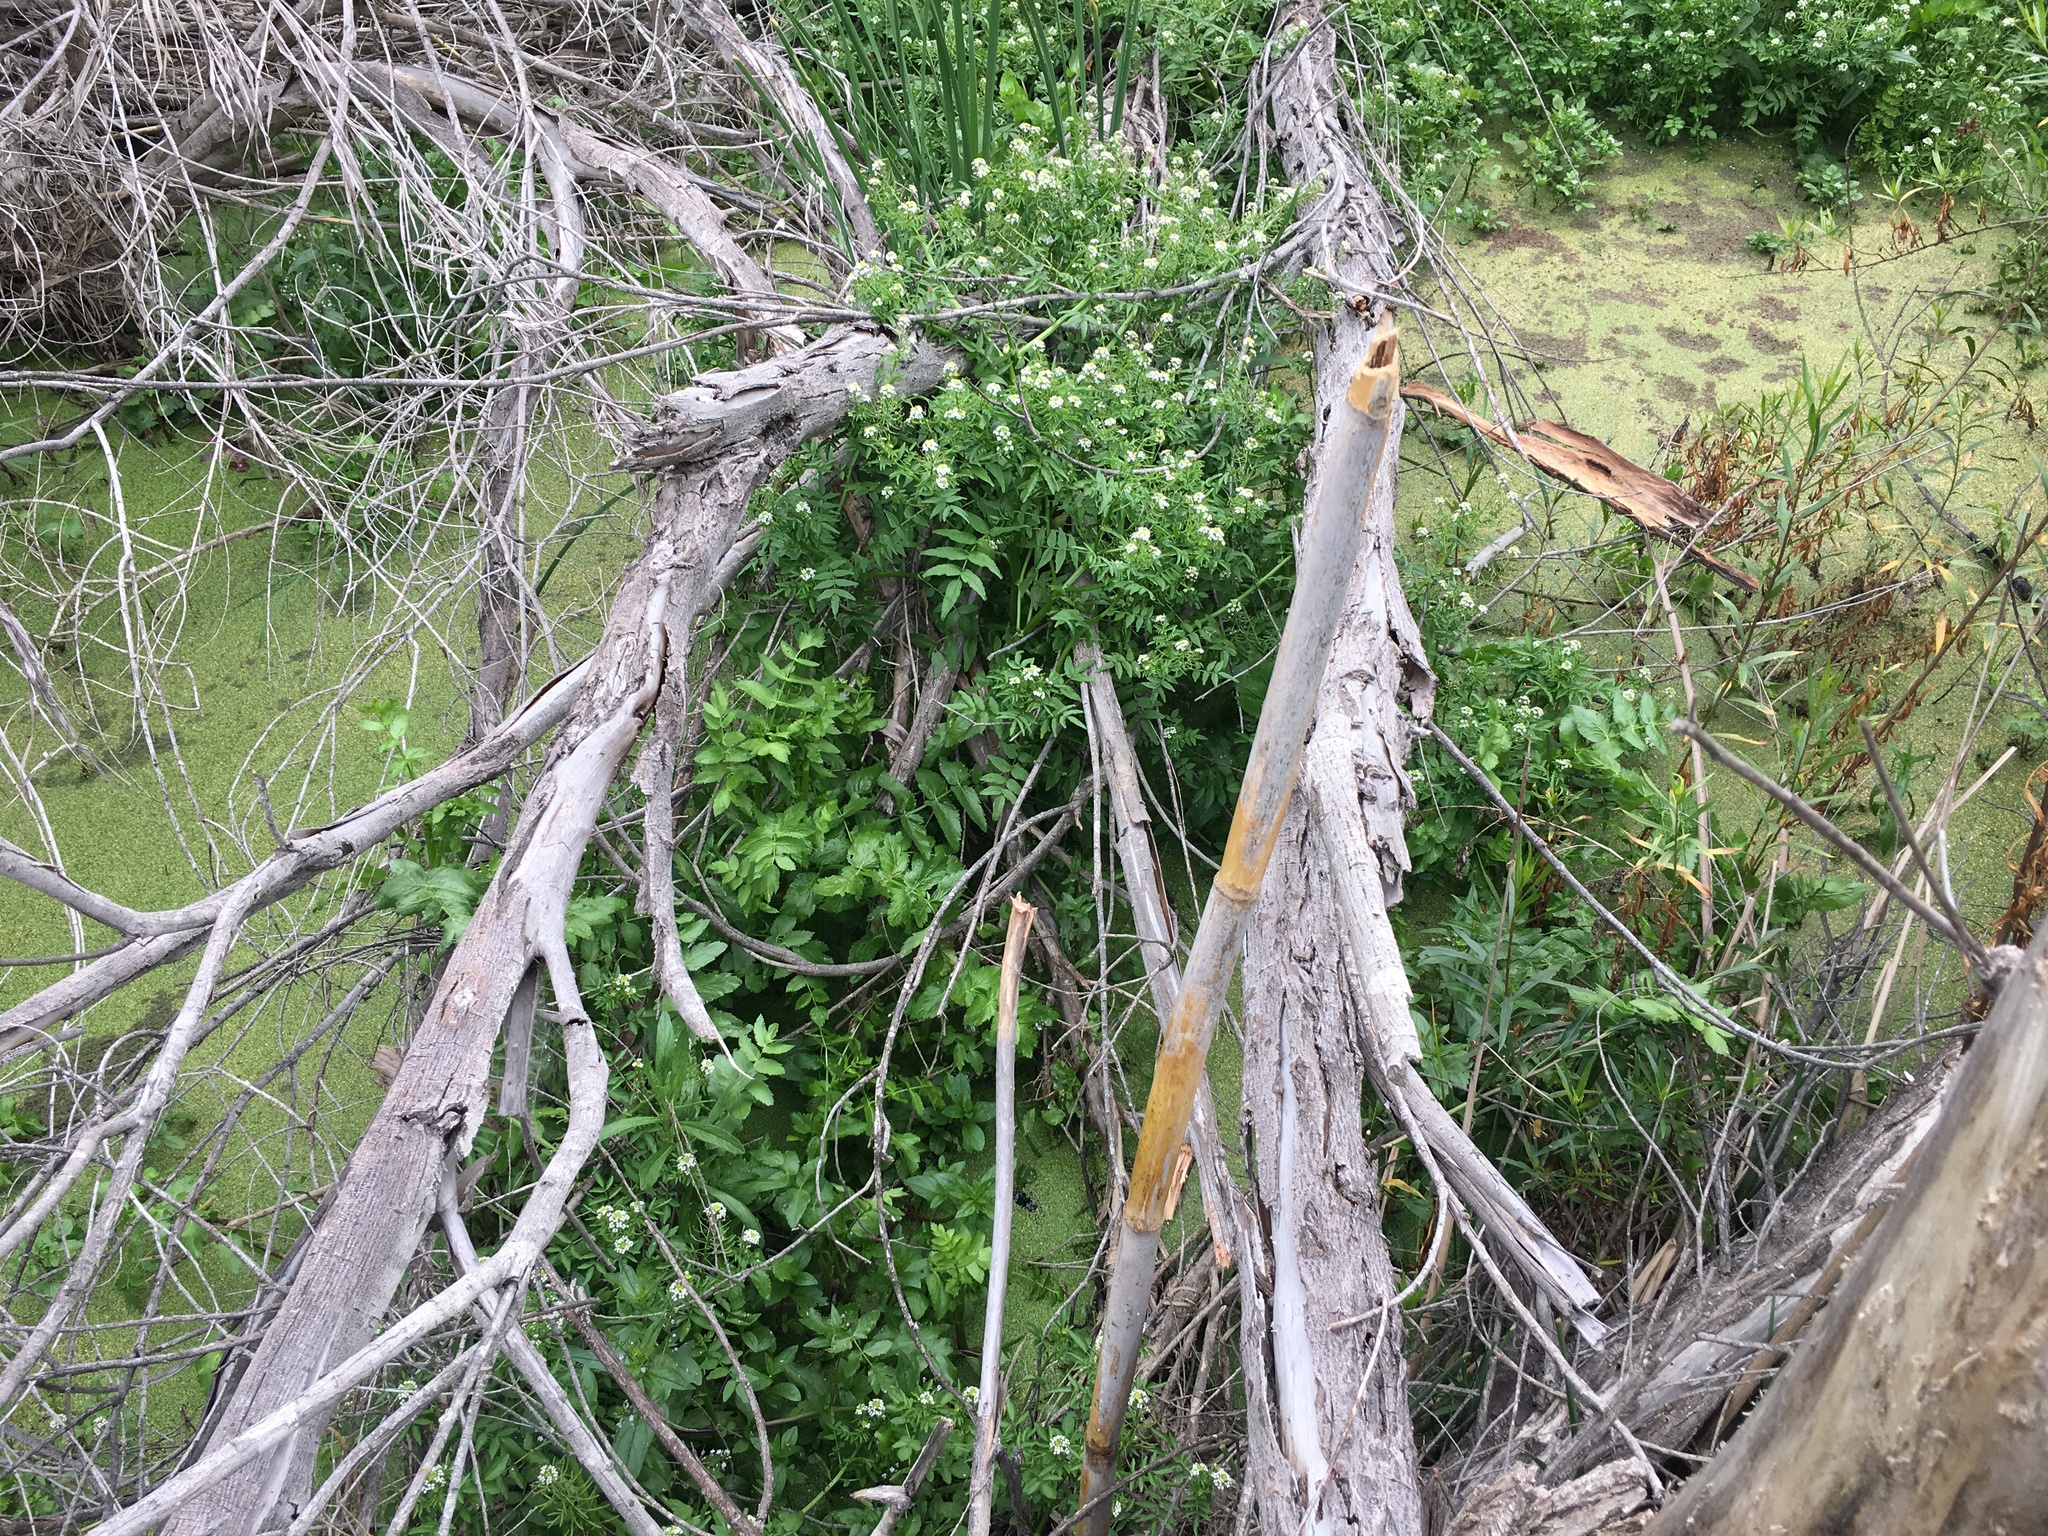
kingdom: Plantae
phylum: Tracheophyta
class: Magnoliopsida
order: Apiales
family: Apiaceae
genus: Berula
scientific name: Berula erecta
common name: Lesser water-parsnip
